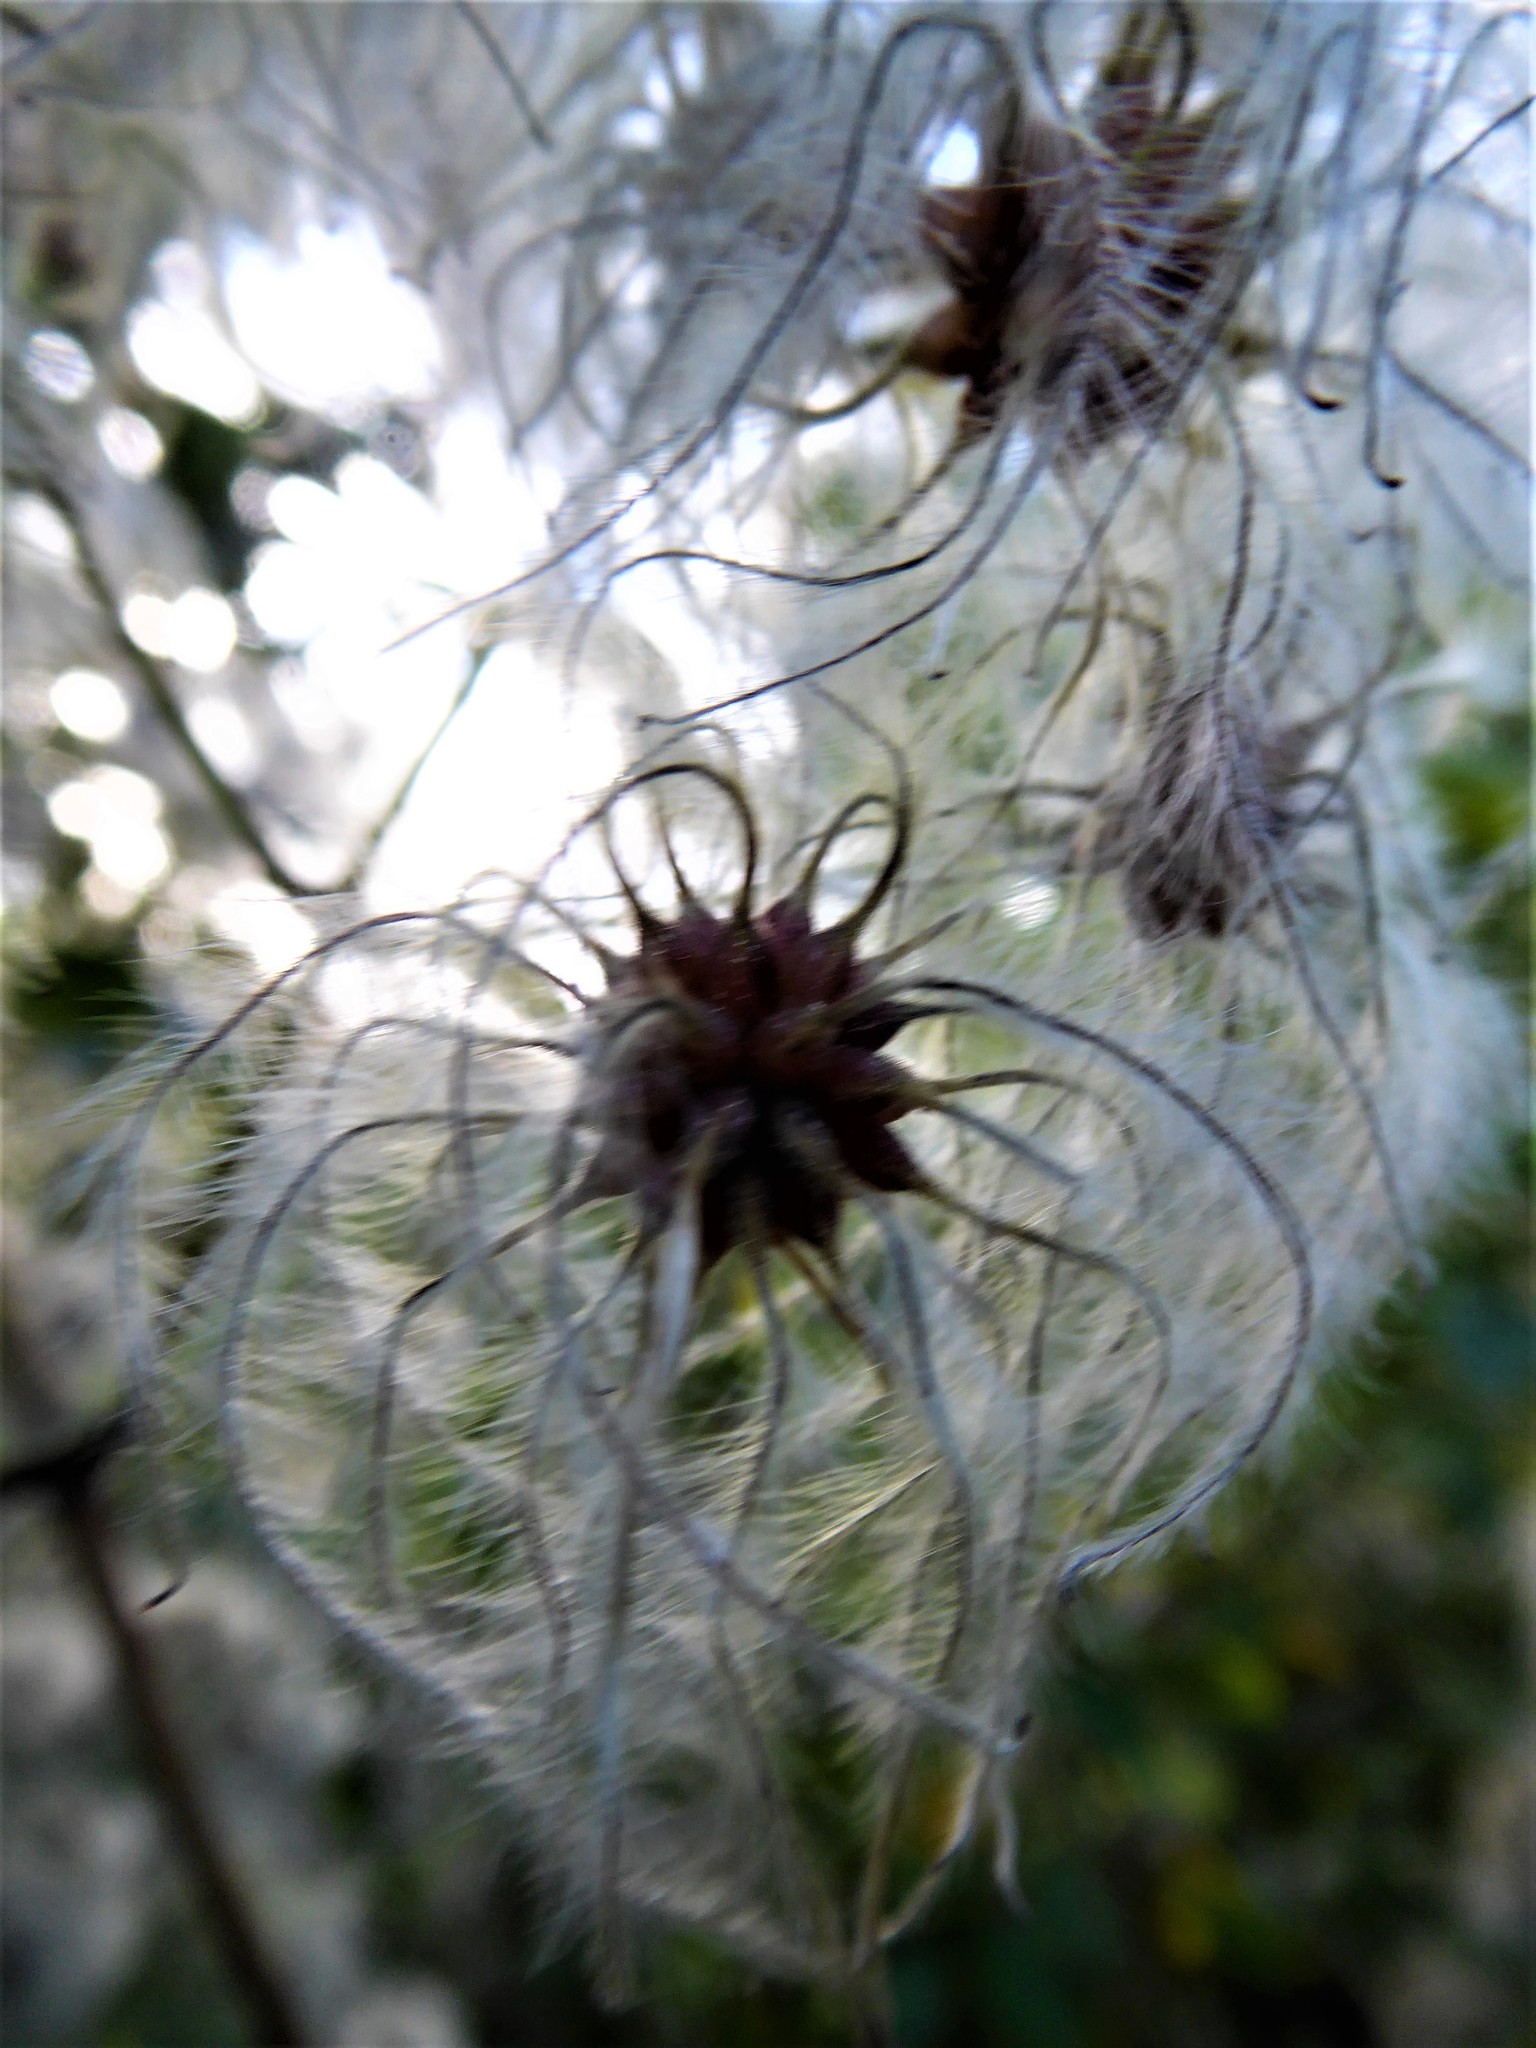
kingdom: Plantae
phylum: Tracheophyta
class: Magnoliopsida
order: Ranunculales
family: Ranunculaceae
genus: Clematis
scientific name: Clematis vitalba
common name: Evergreen clematis
